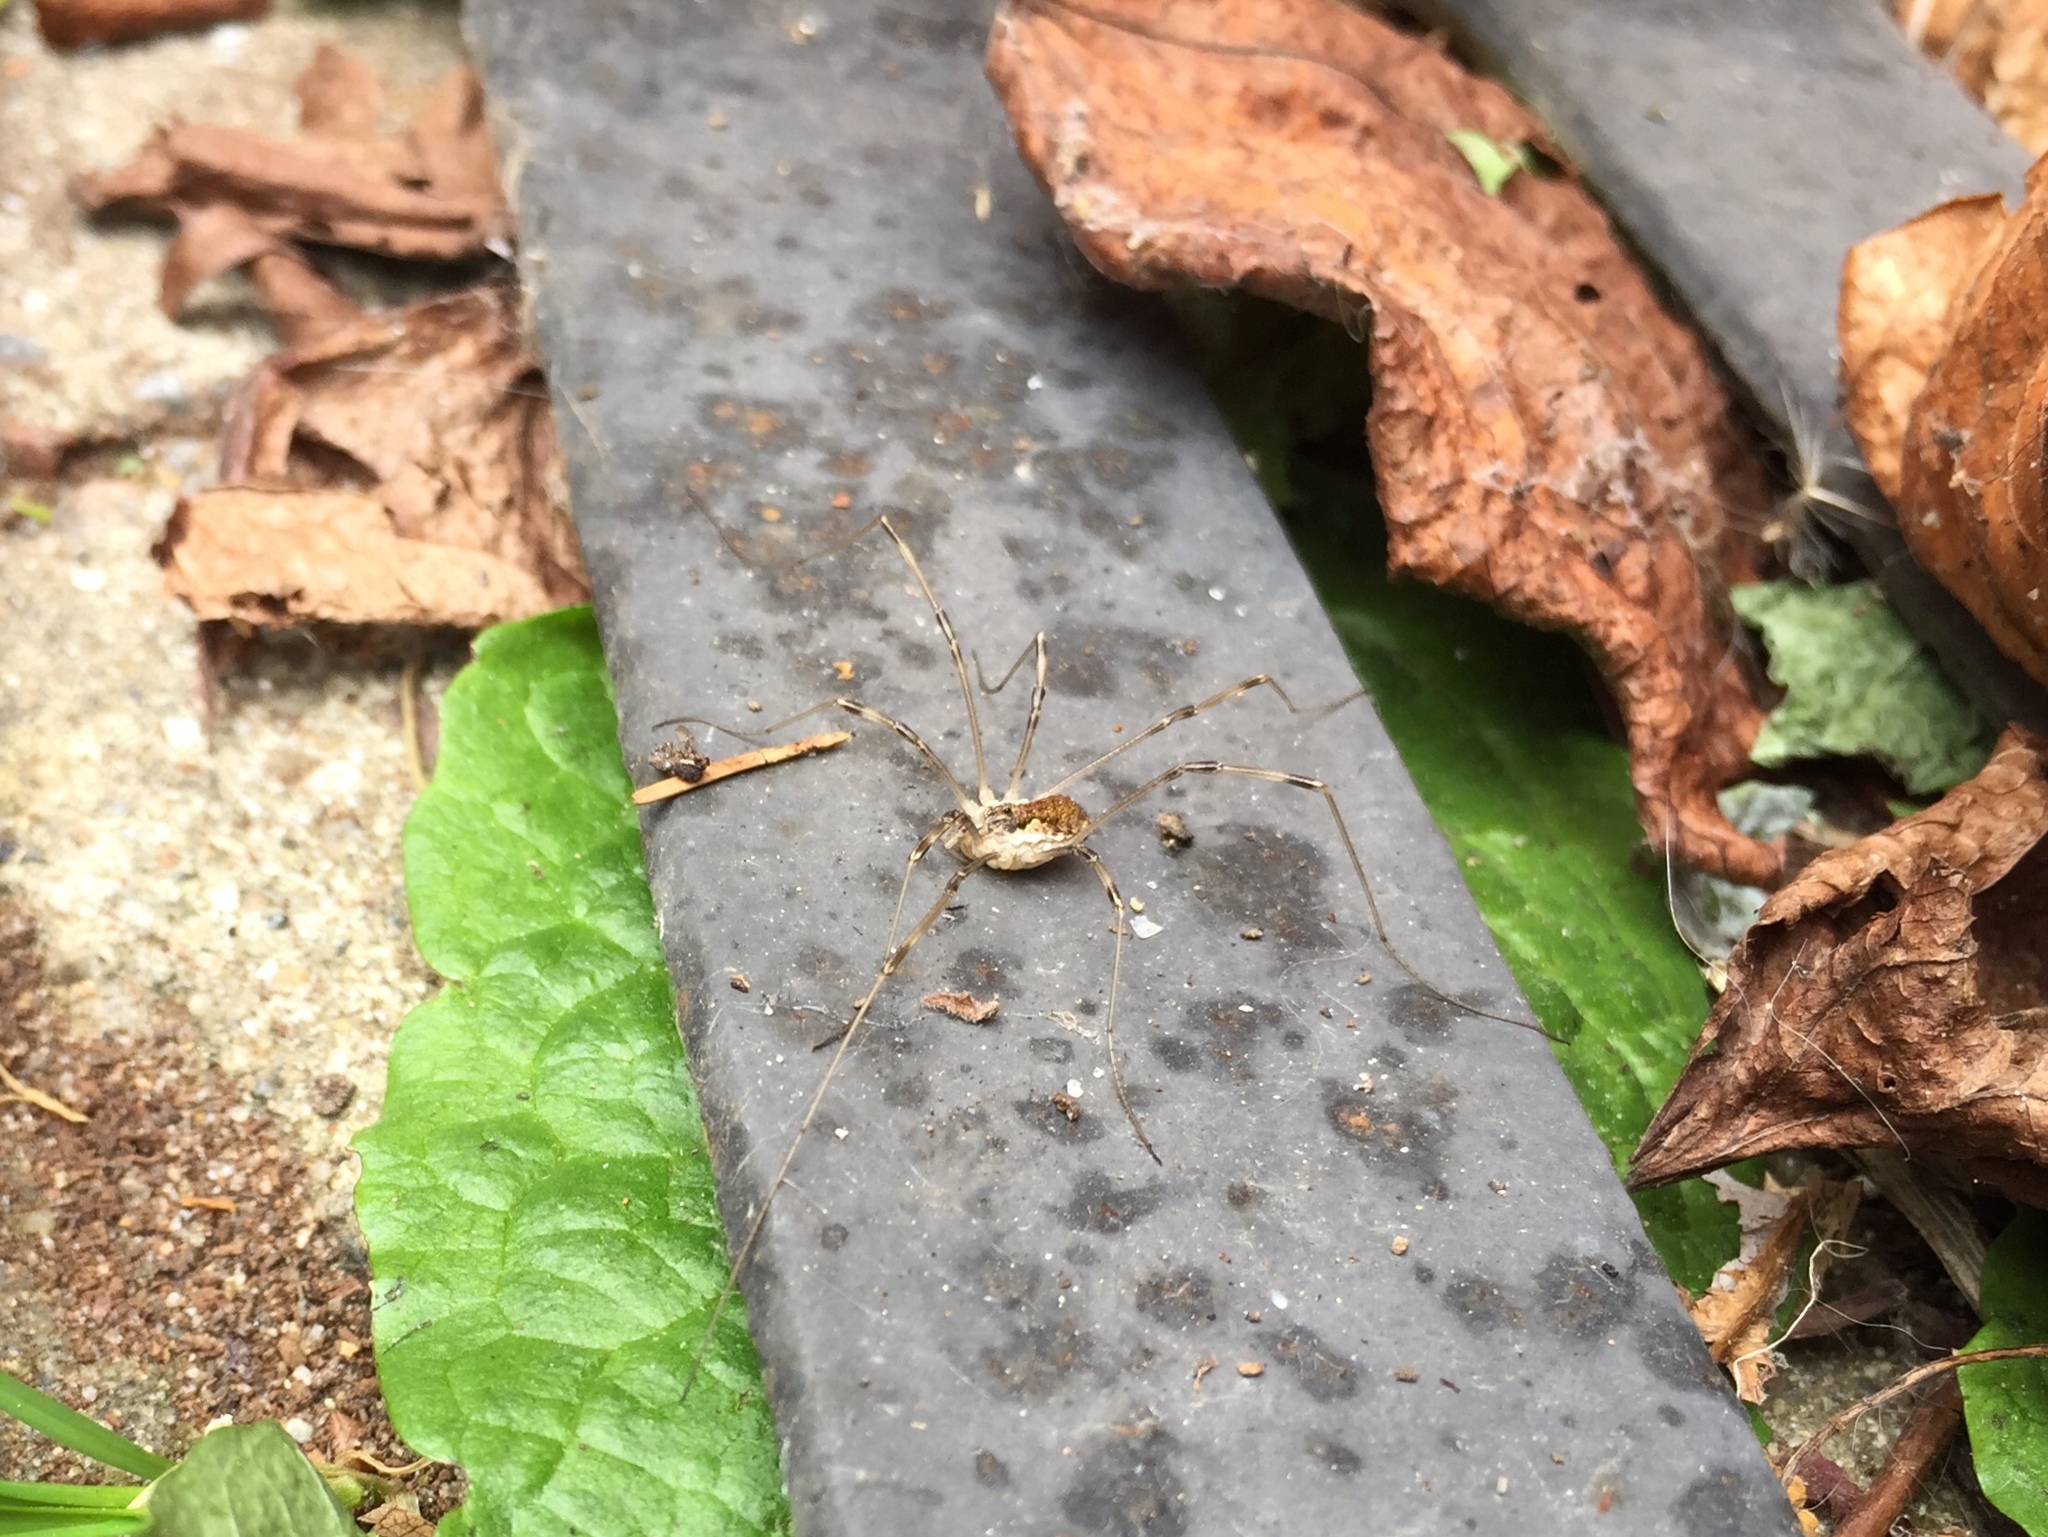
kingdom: Animalia
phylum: Arthropoda
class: Arachnida
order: Opiliones
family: Phalangiidae
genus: Mitopus
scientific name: Mitopus morio
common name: Saddleback harvestman
